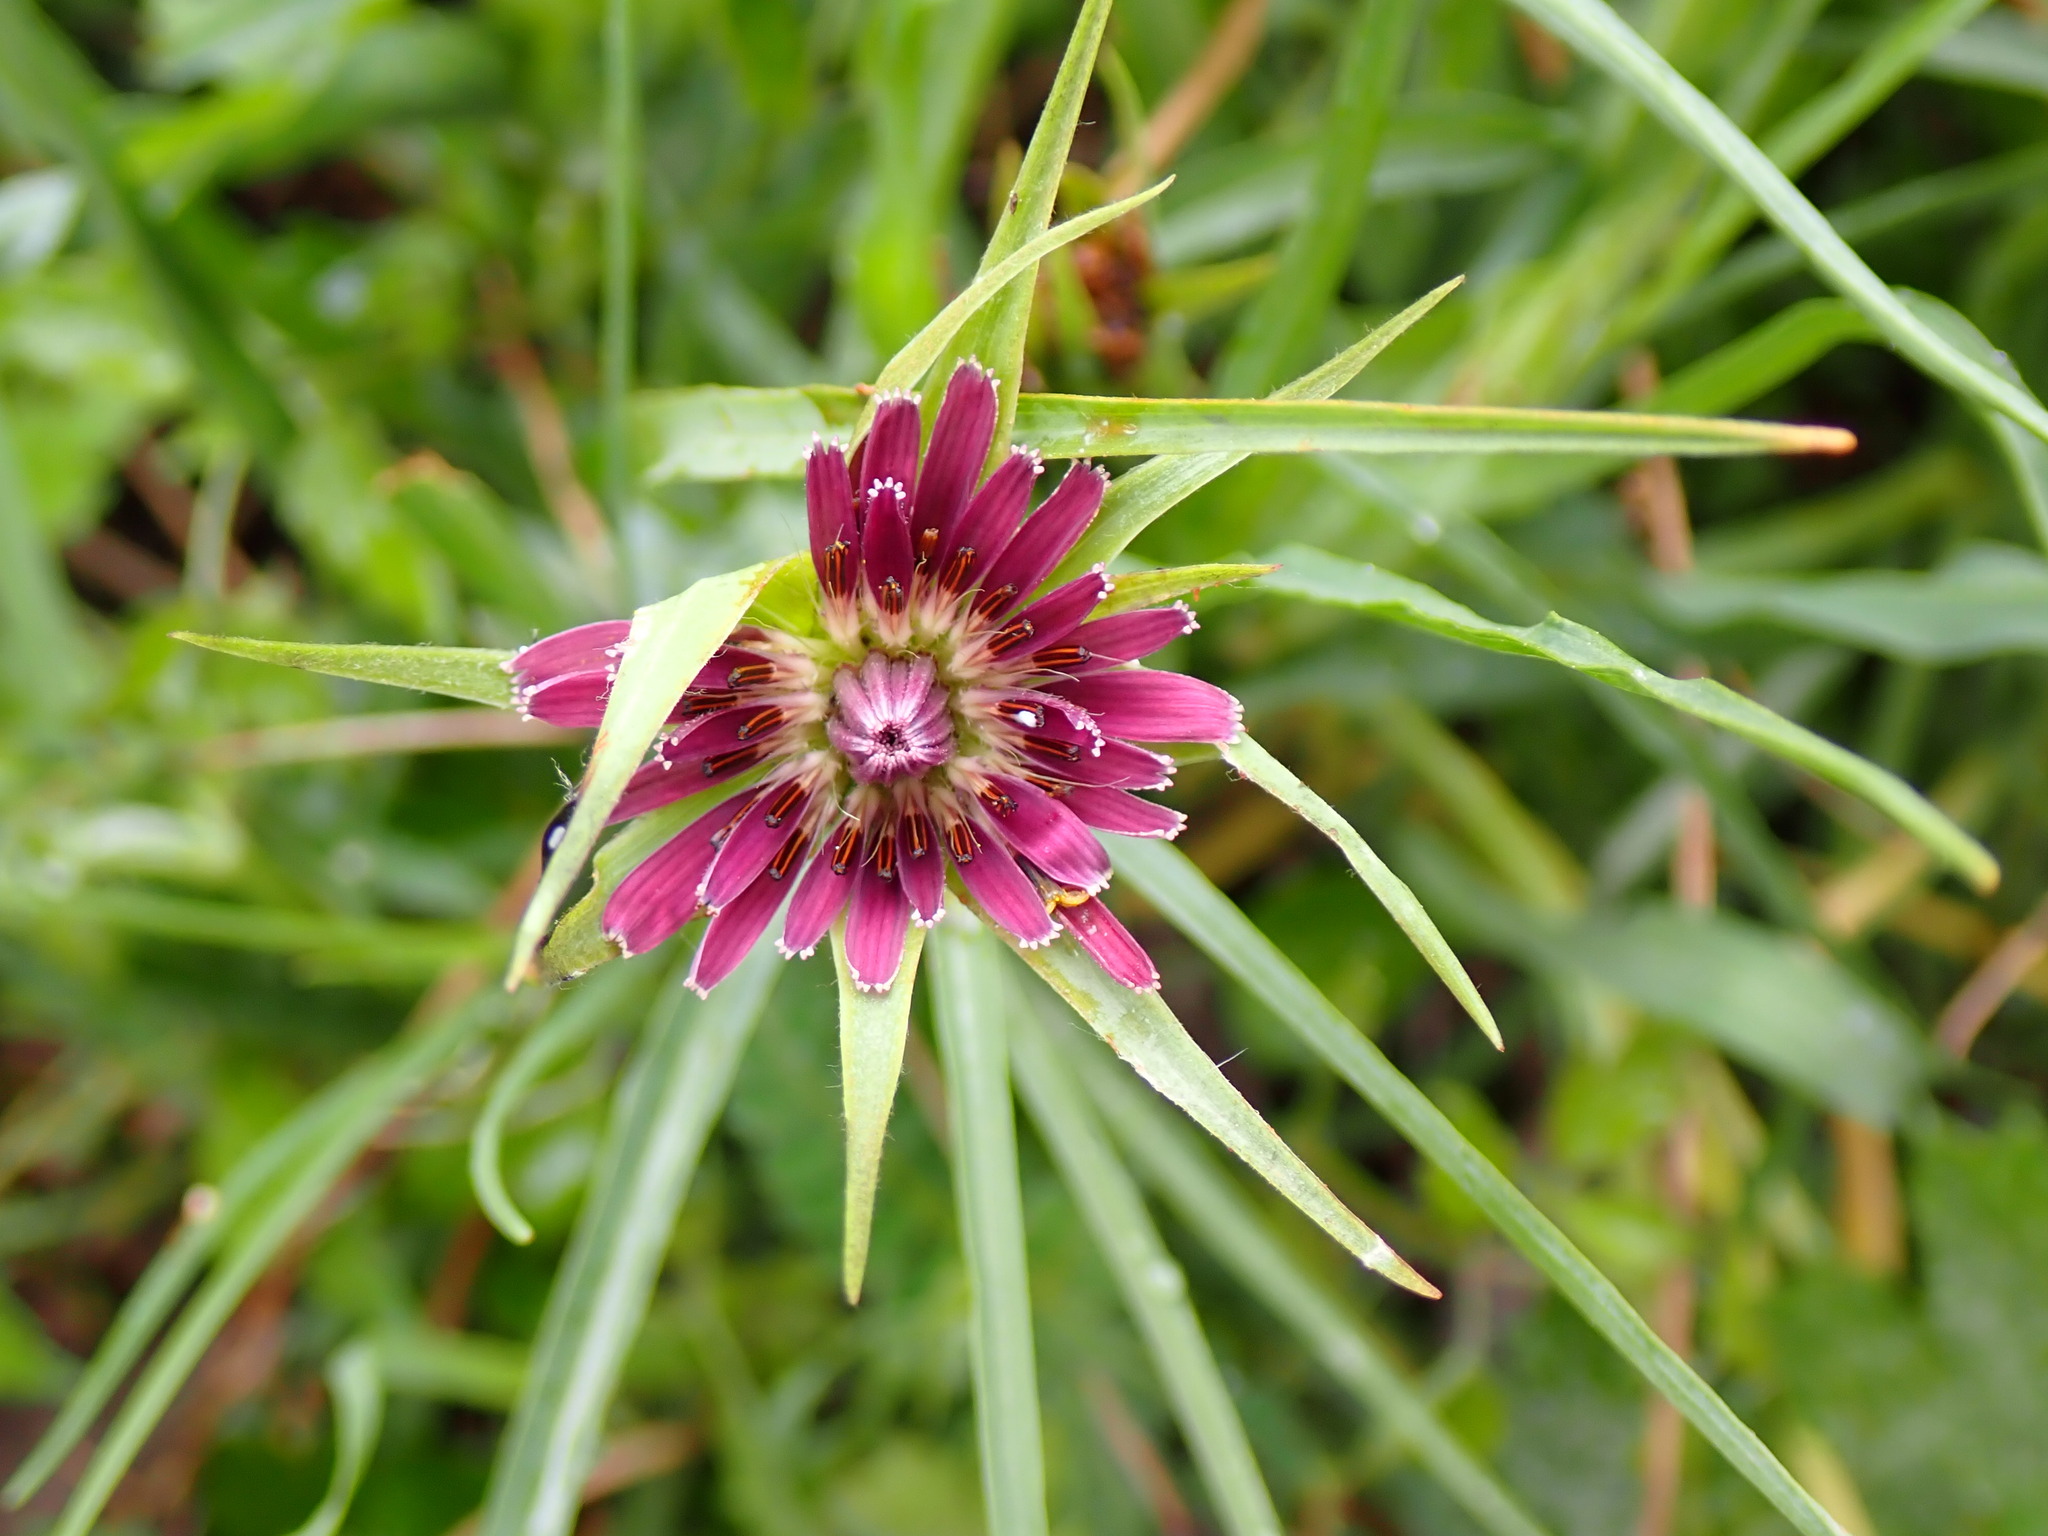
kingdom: Plantae
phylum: Tracheophyta
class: Magnoliopsida
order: Asterales
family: Asteraceae
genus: Tragopogon
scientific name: Tragopogon porrifolius
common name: Salsify
